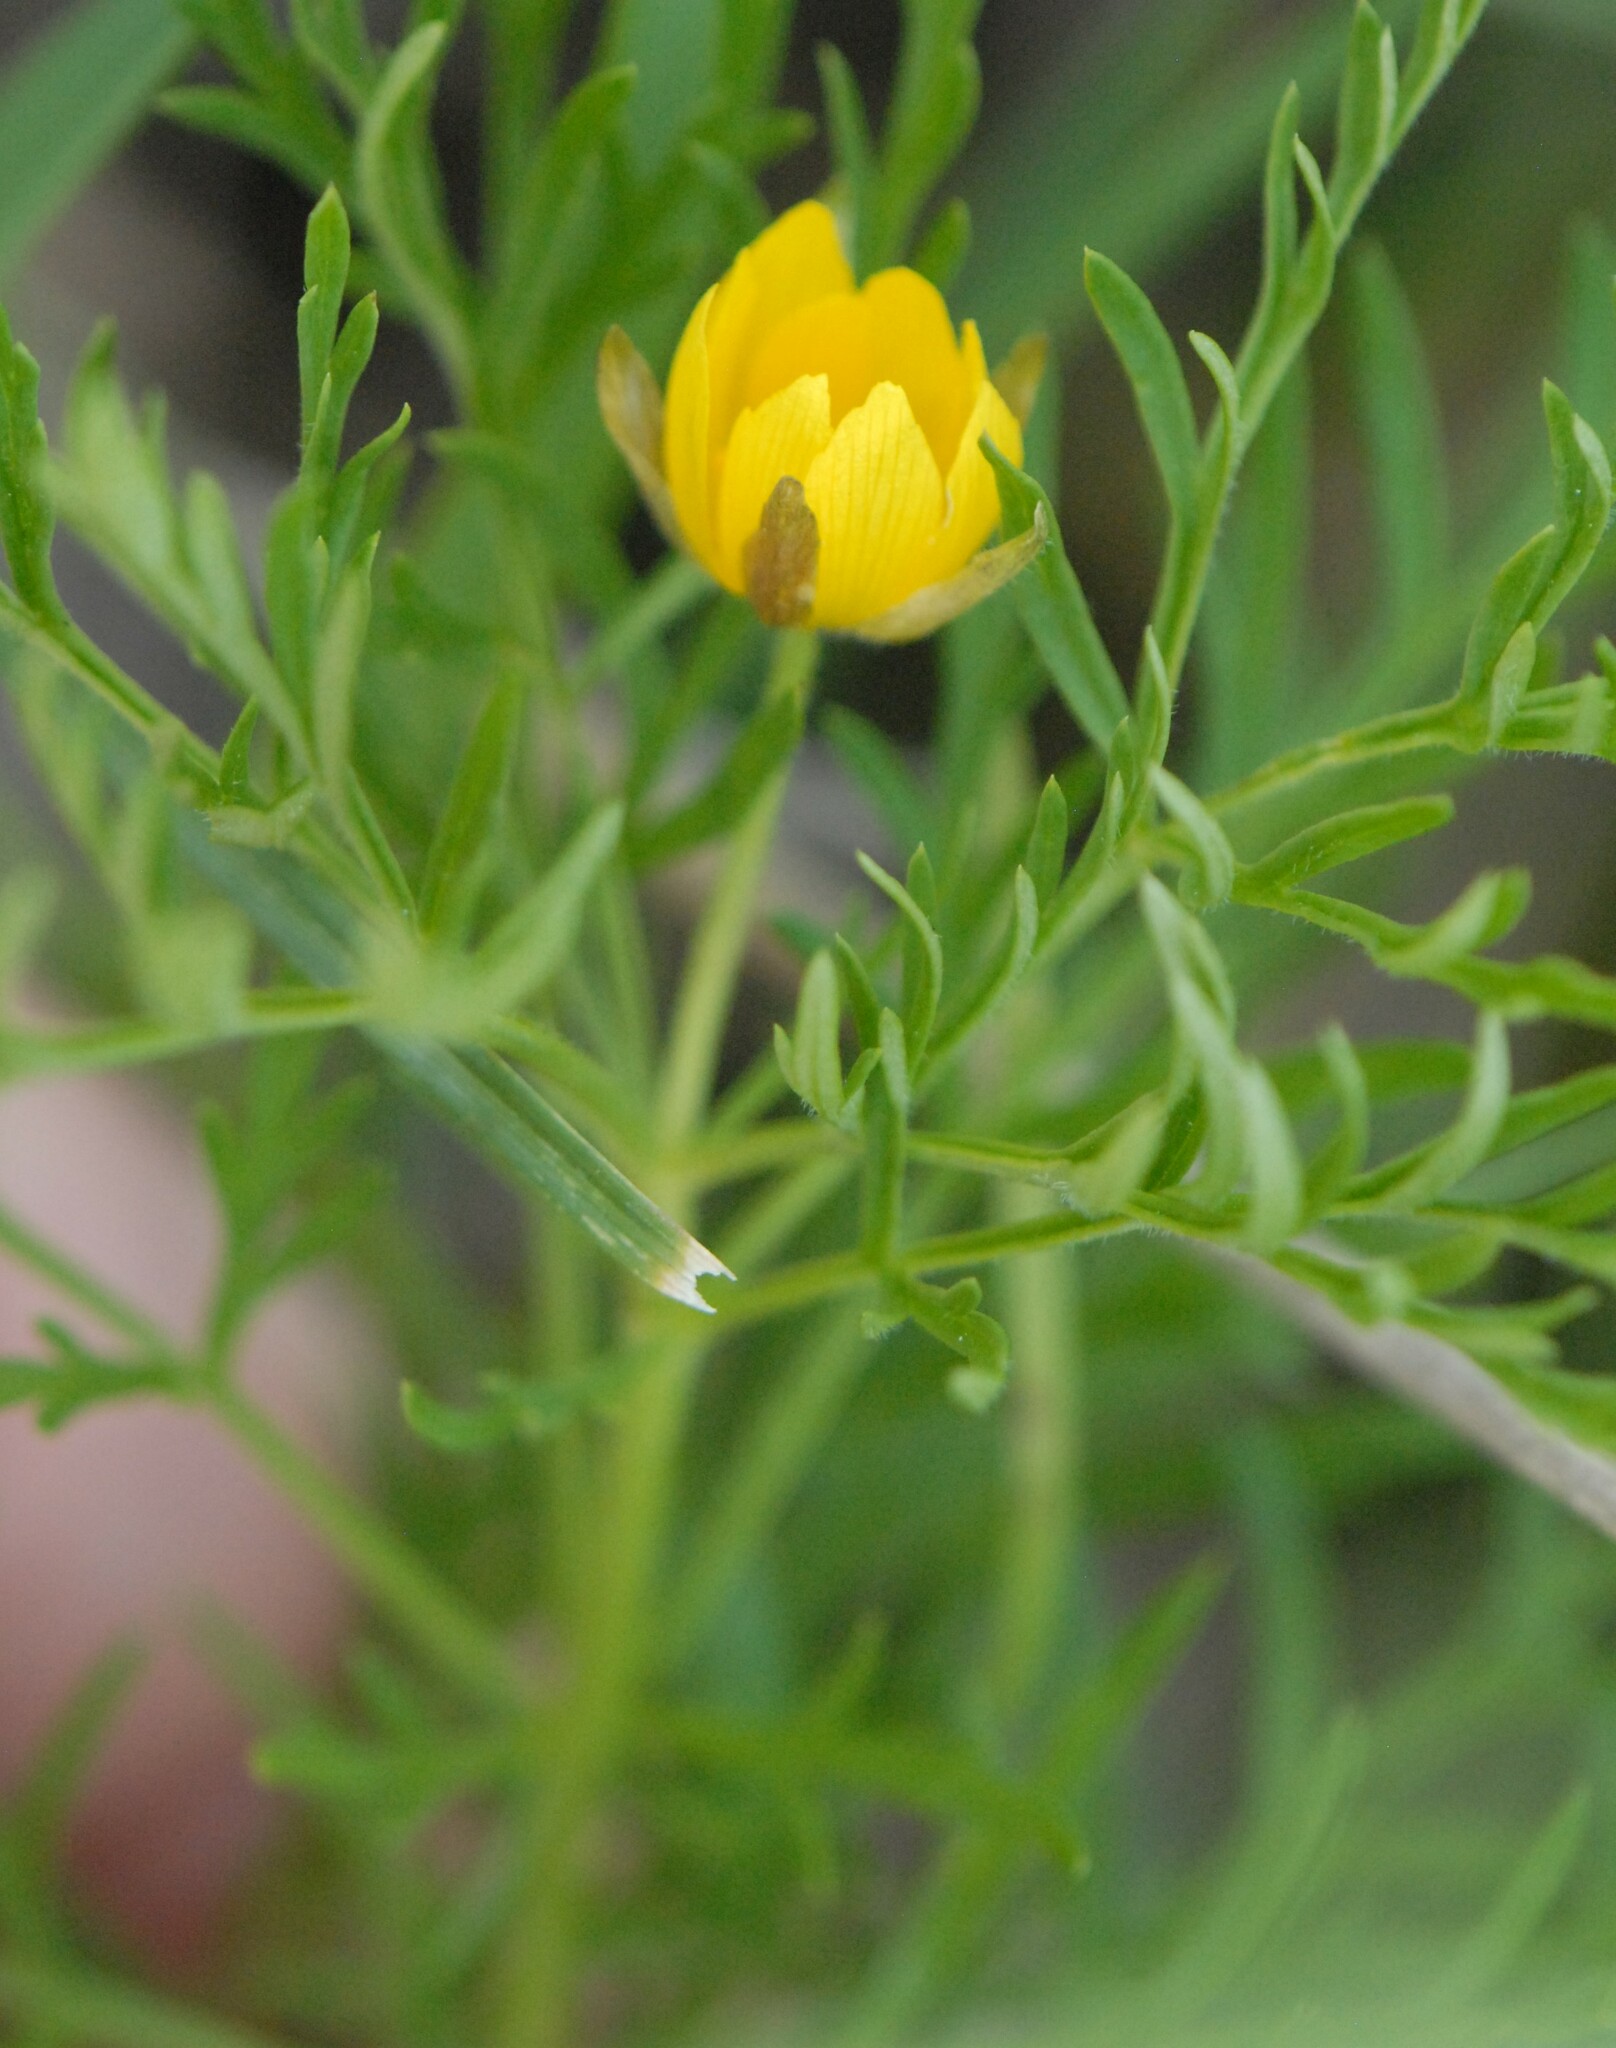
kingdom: Plantae
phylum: Tracheophyta
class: Magnoliopsida
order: Ranunculales
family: Ranunculaceae
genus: Adonis
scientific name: Adonis volgensis
